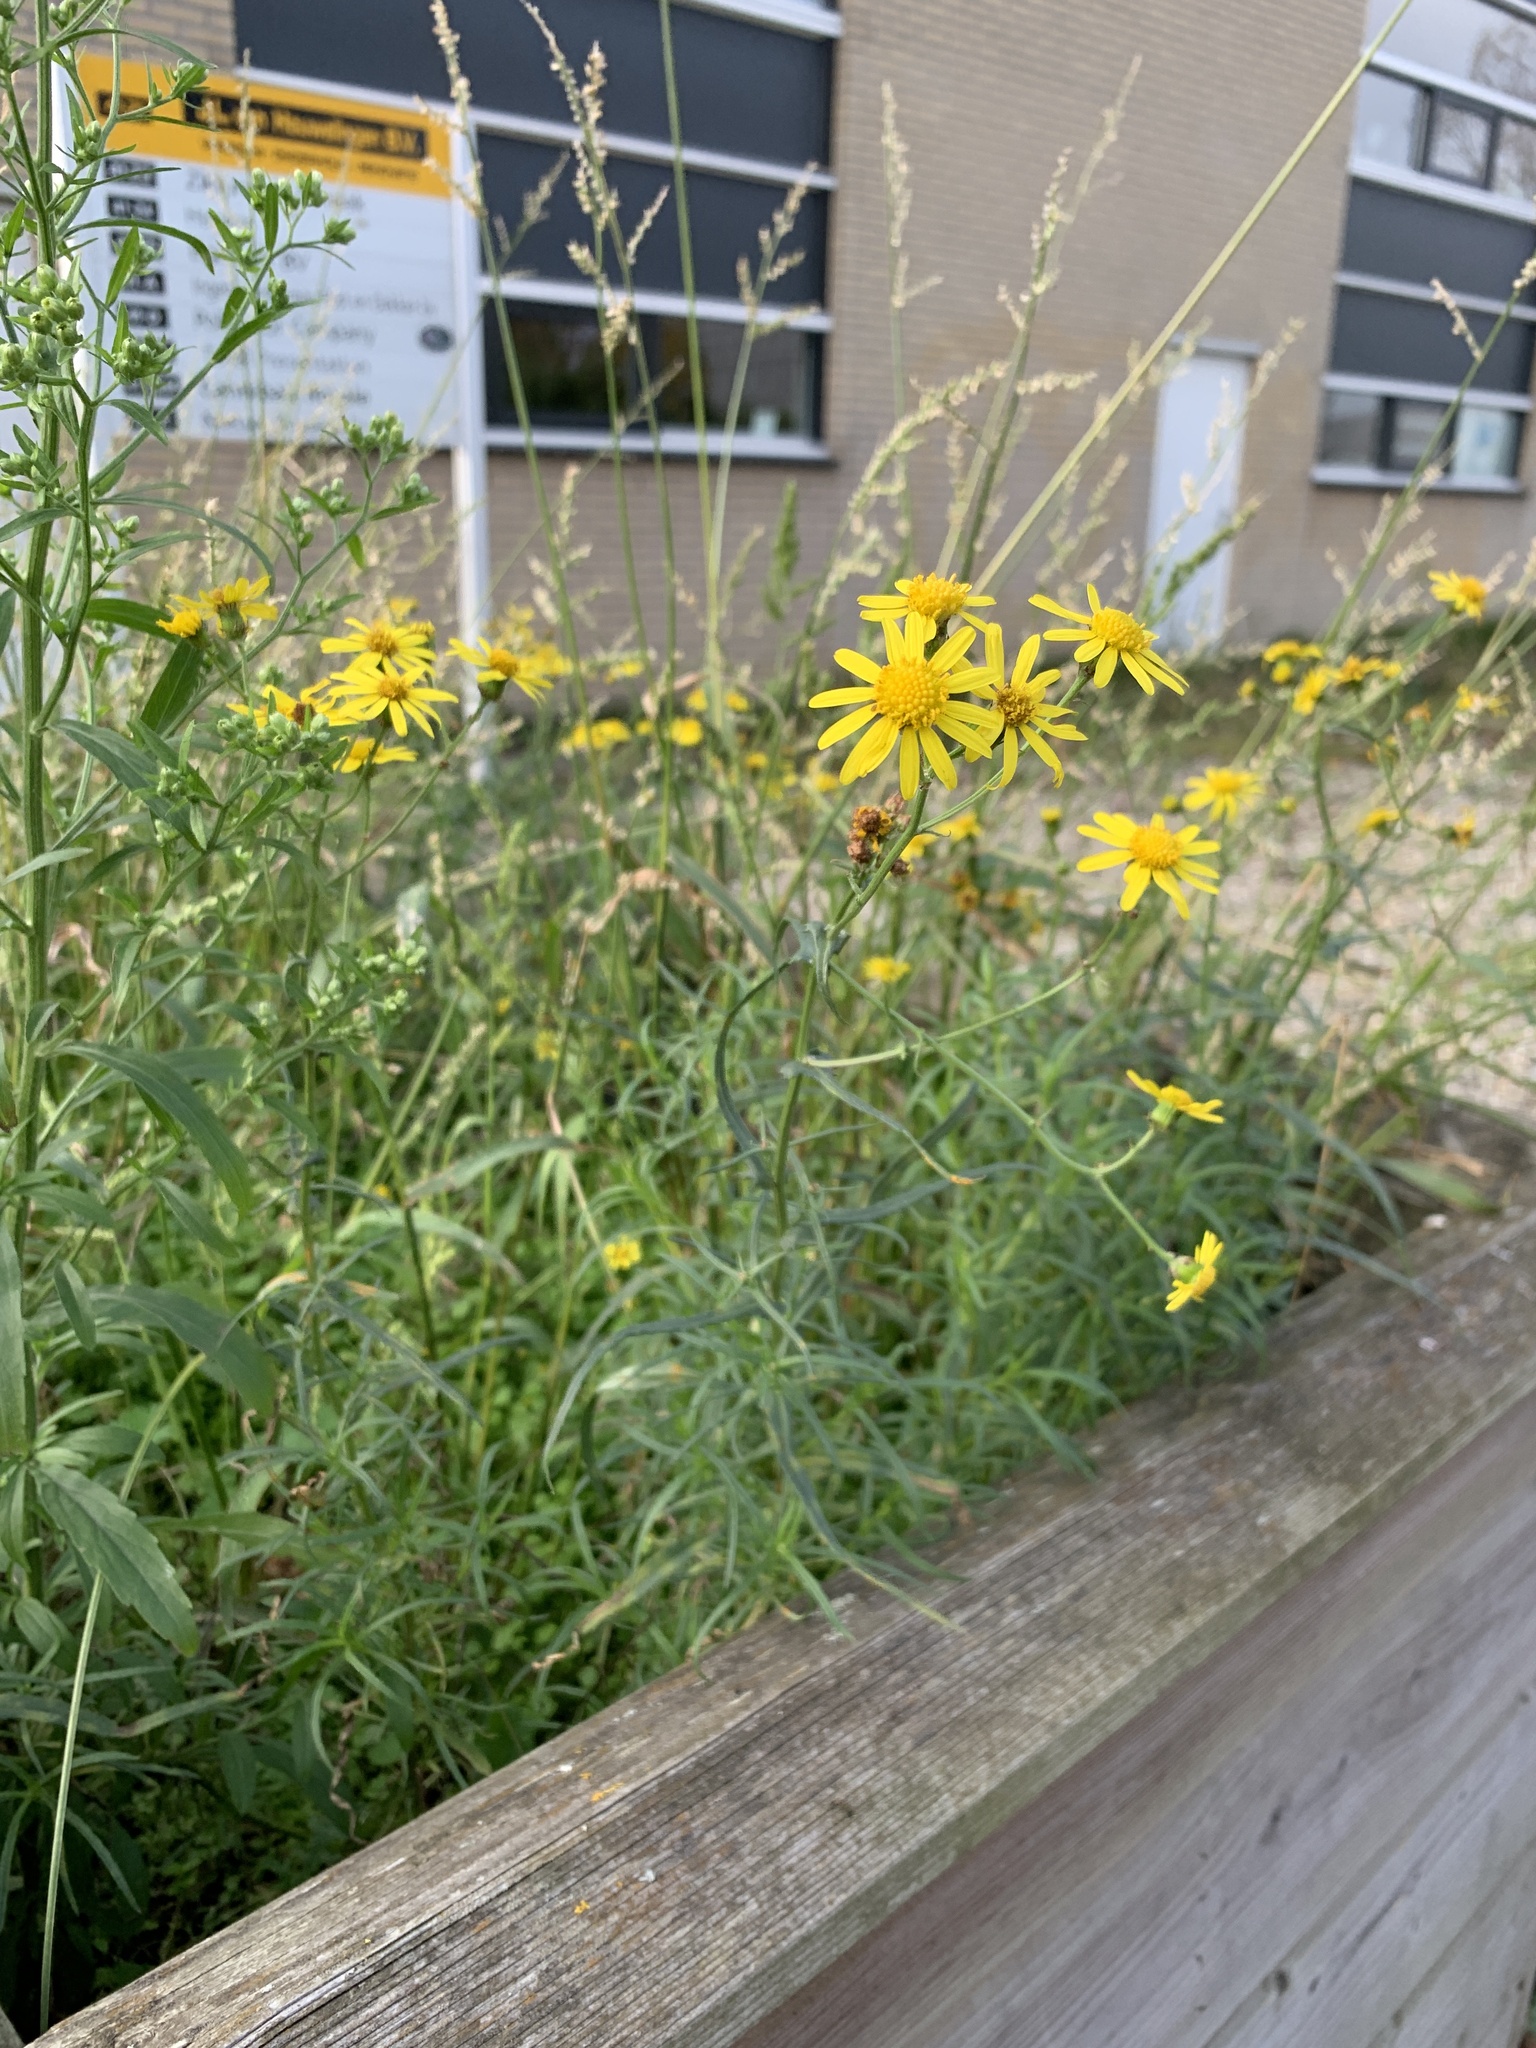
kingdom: Plantae
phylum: Tracheophyta
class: Magnoliopsida
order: Asterales
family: Asteraceae
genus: Senecio
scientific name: Senecio inaequidens
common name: Narrow-leaved ragwort
